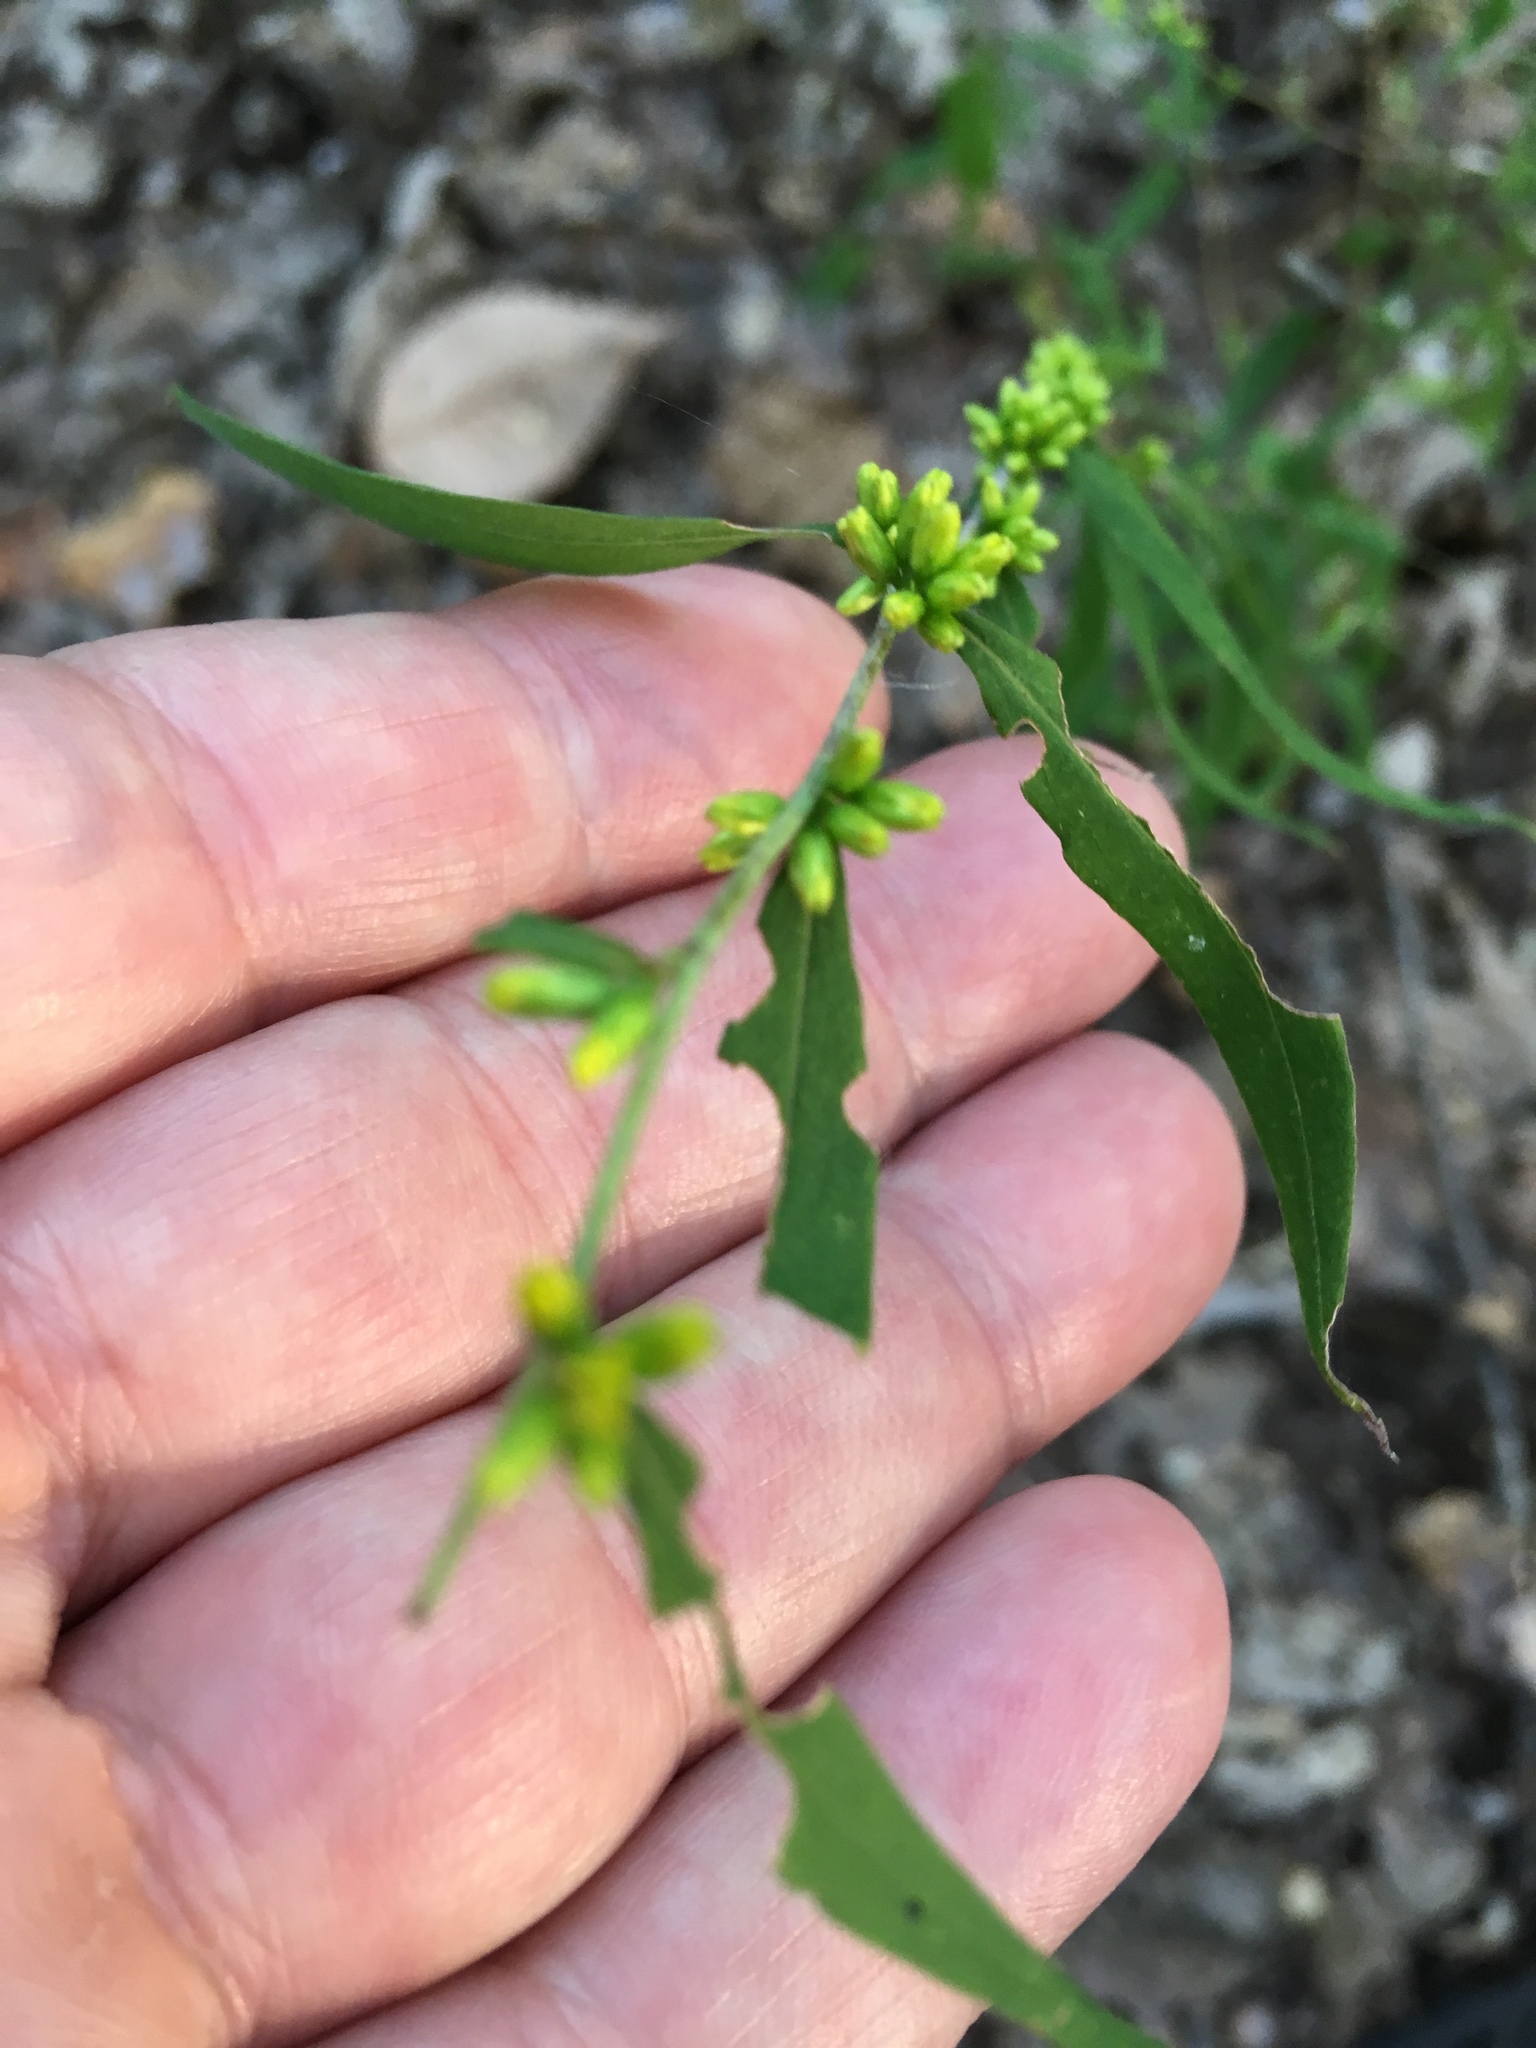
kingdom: Plantae
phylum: Tracheophyta
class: Magnoliopsida
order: Asterales
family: Asteraceae
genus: Solidago
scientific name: Solidago caesia
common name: Woodland goldenrod
